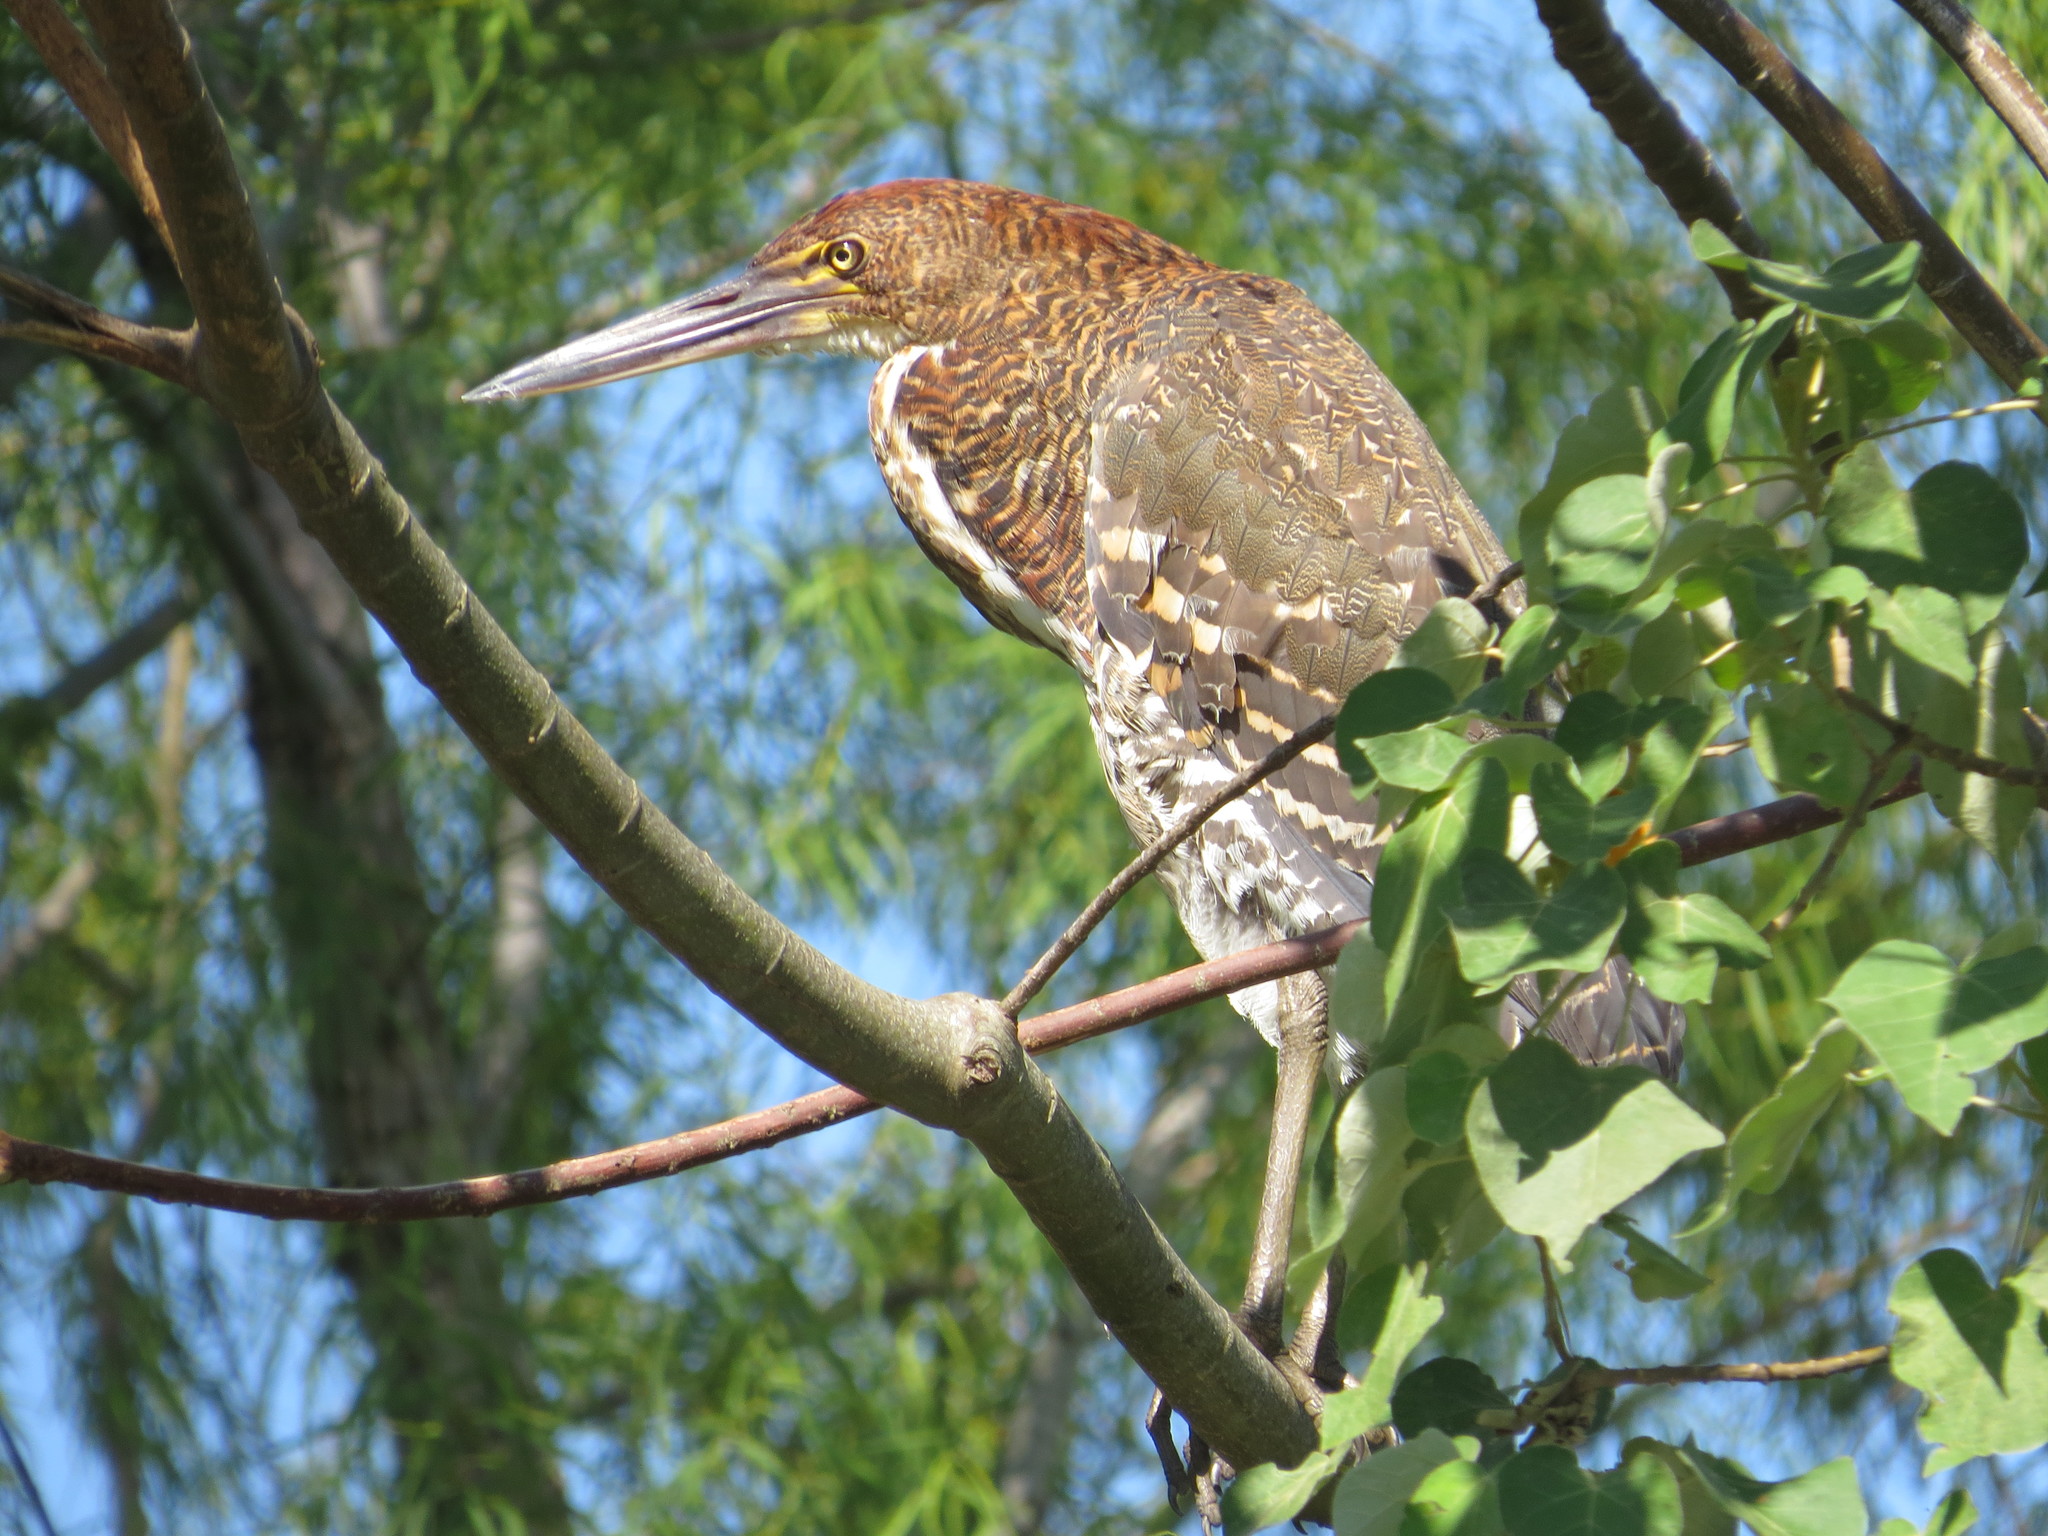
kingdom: Animalia
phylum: Chordata
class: Aves
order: Pelecaniformes
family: Ardeidae
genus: Tigrisoma
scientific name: Tigrisoma lineatum
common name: Rufescent tiger-heron
